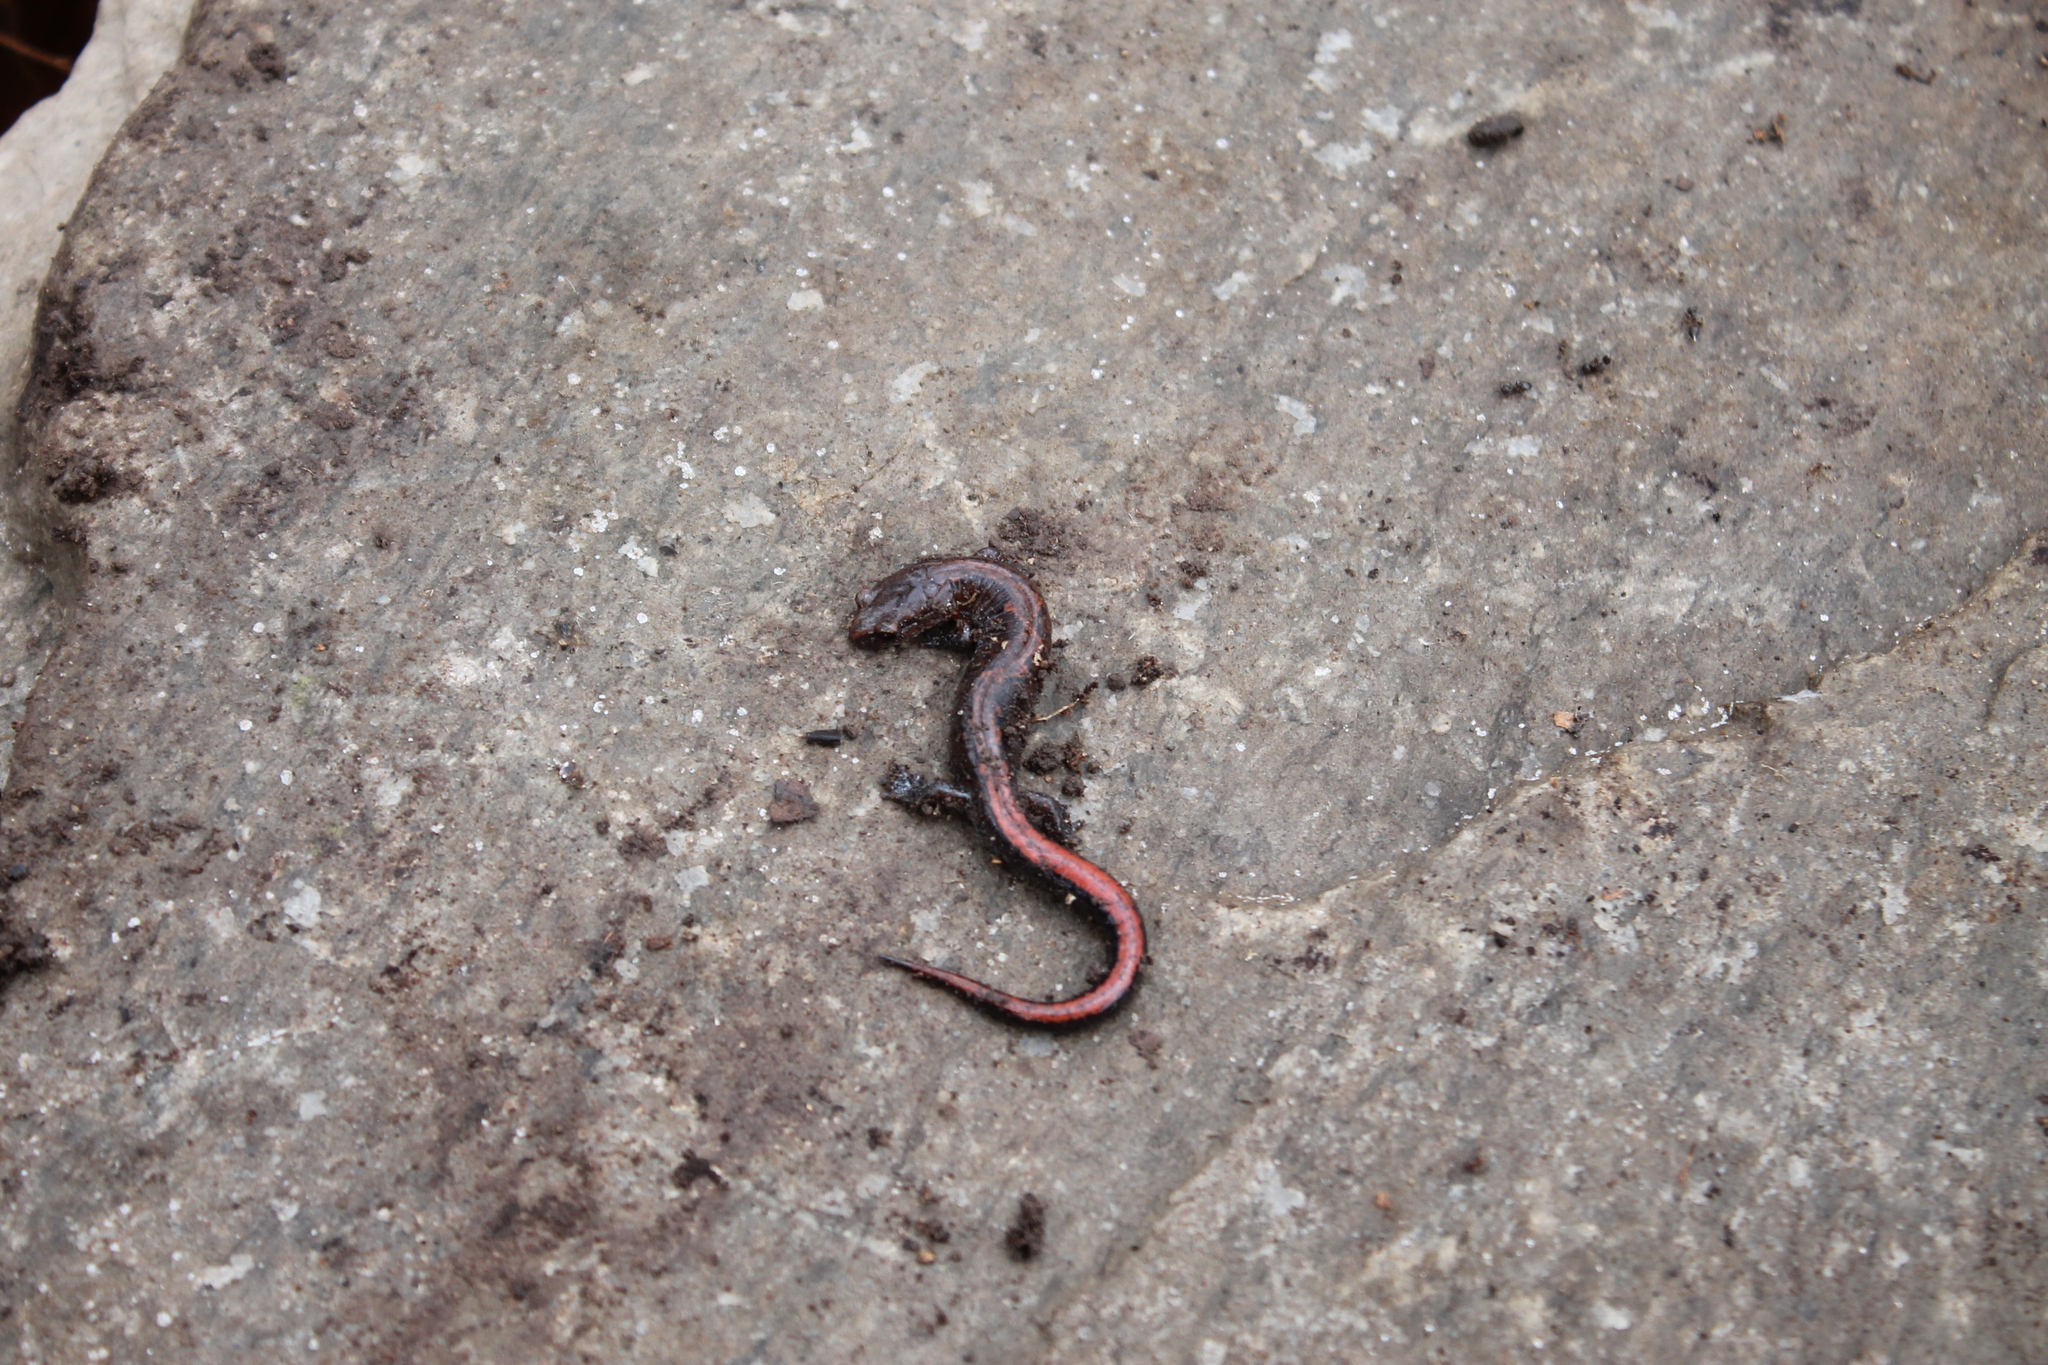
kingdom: Animalia
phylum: Chordata
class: Amphibia
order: Caudata
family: Plethodontidae
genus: Plethodon
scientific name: Plethodon dorsalis
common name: Northern zigzag salamander
